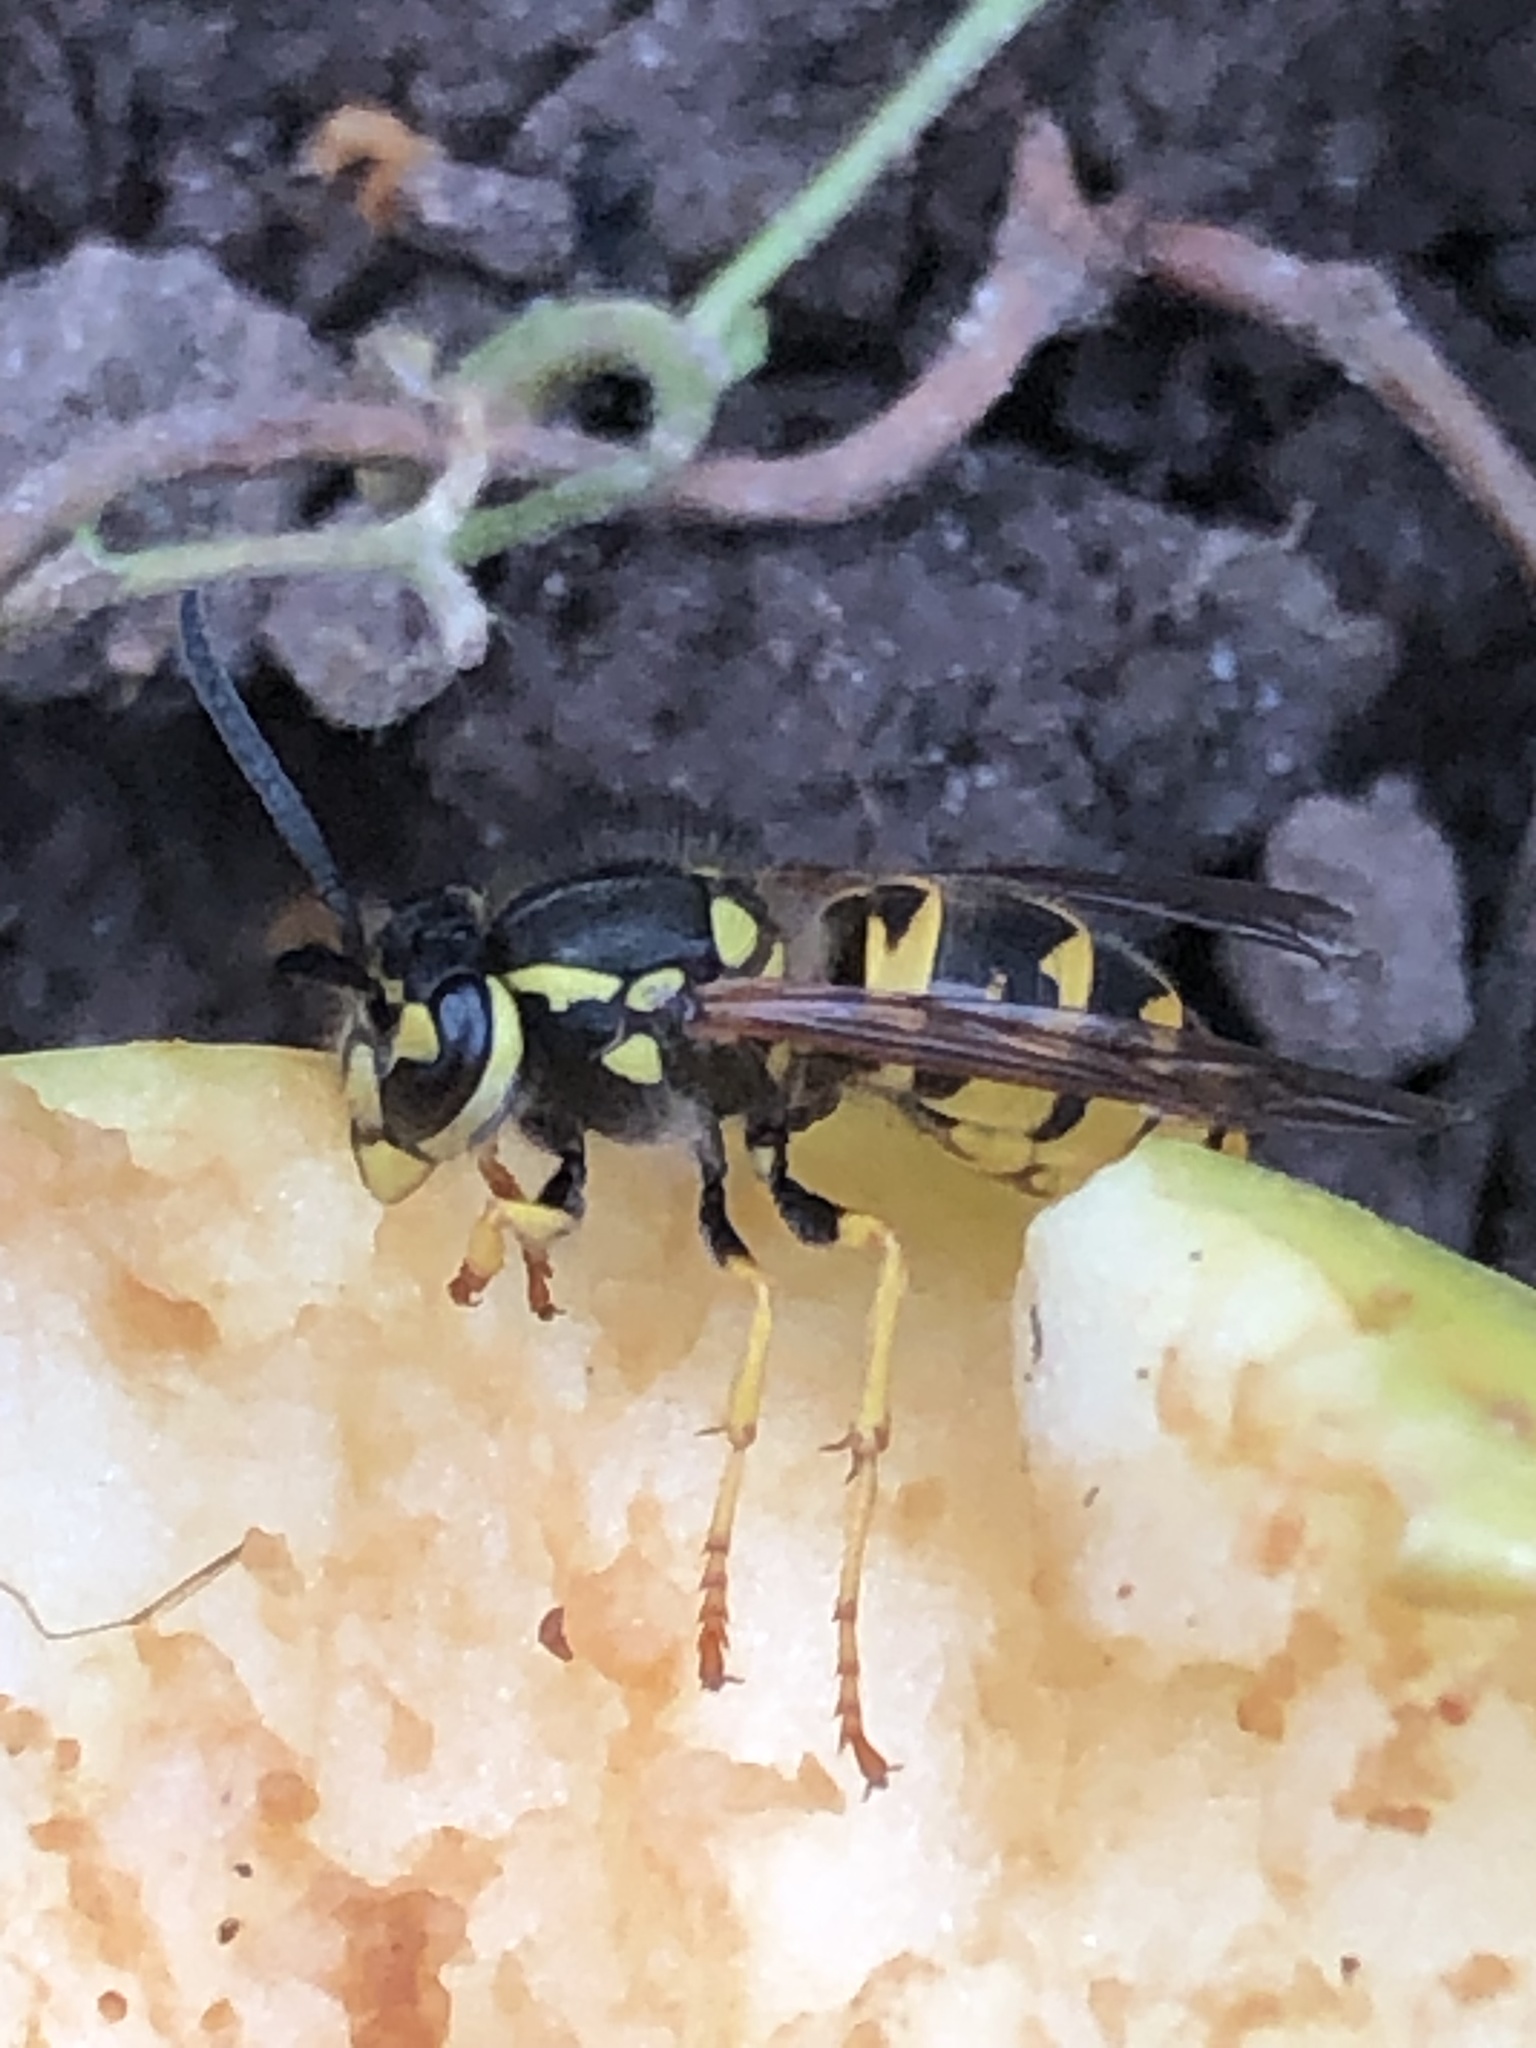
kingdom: Animalia
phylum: Arthropoda
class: Insecta
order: Hymenoptera
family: Vespidae
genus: Vespula
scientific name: Vespula germanica
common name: German wasp
